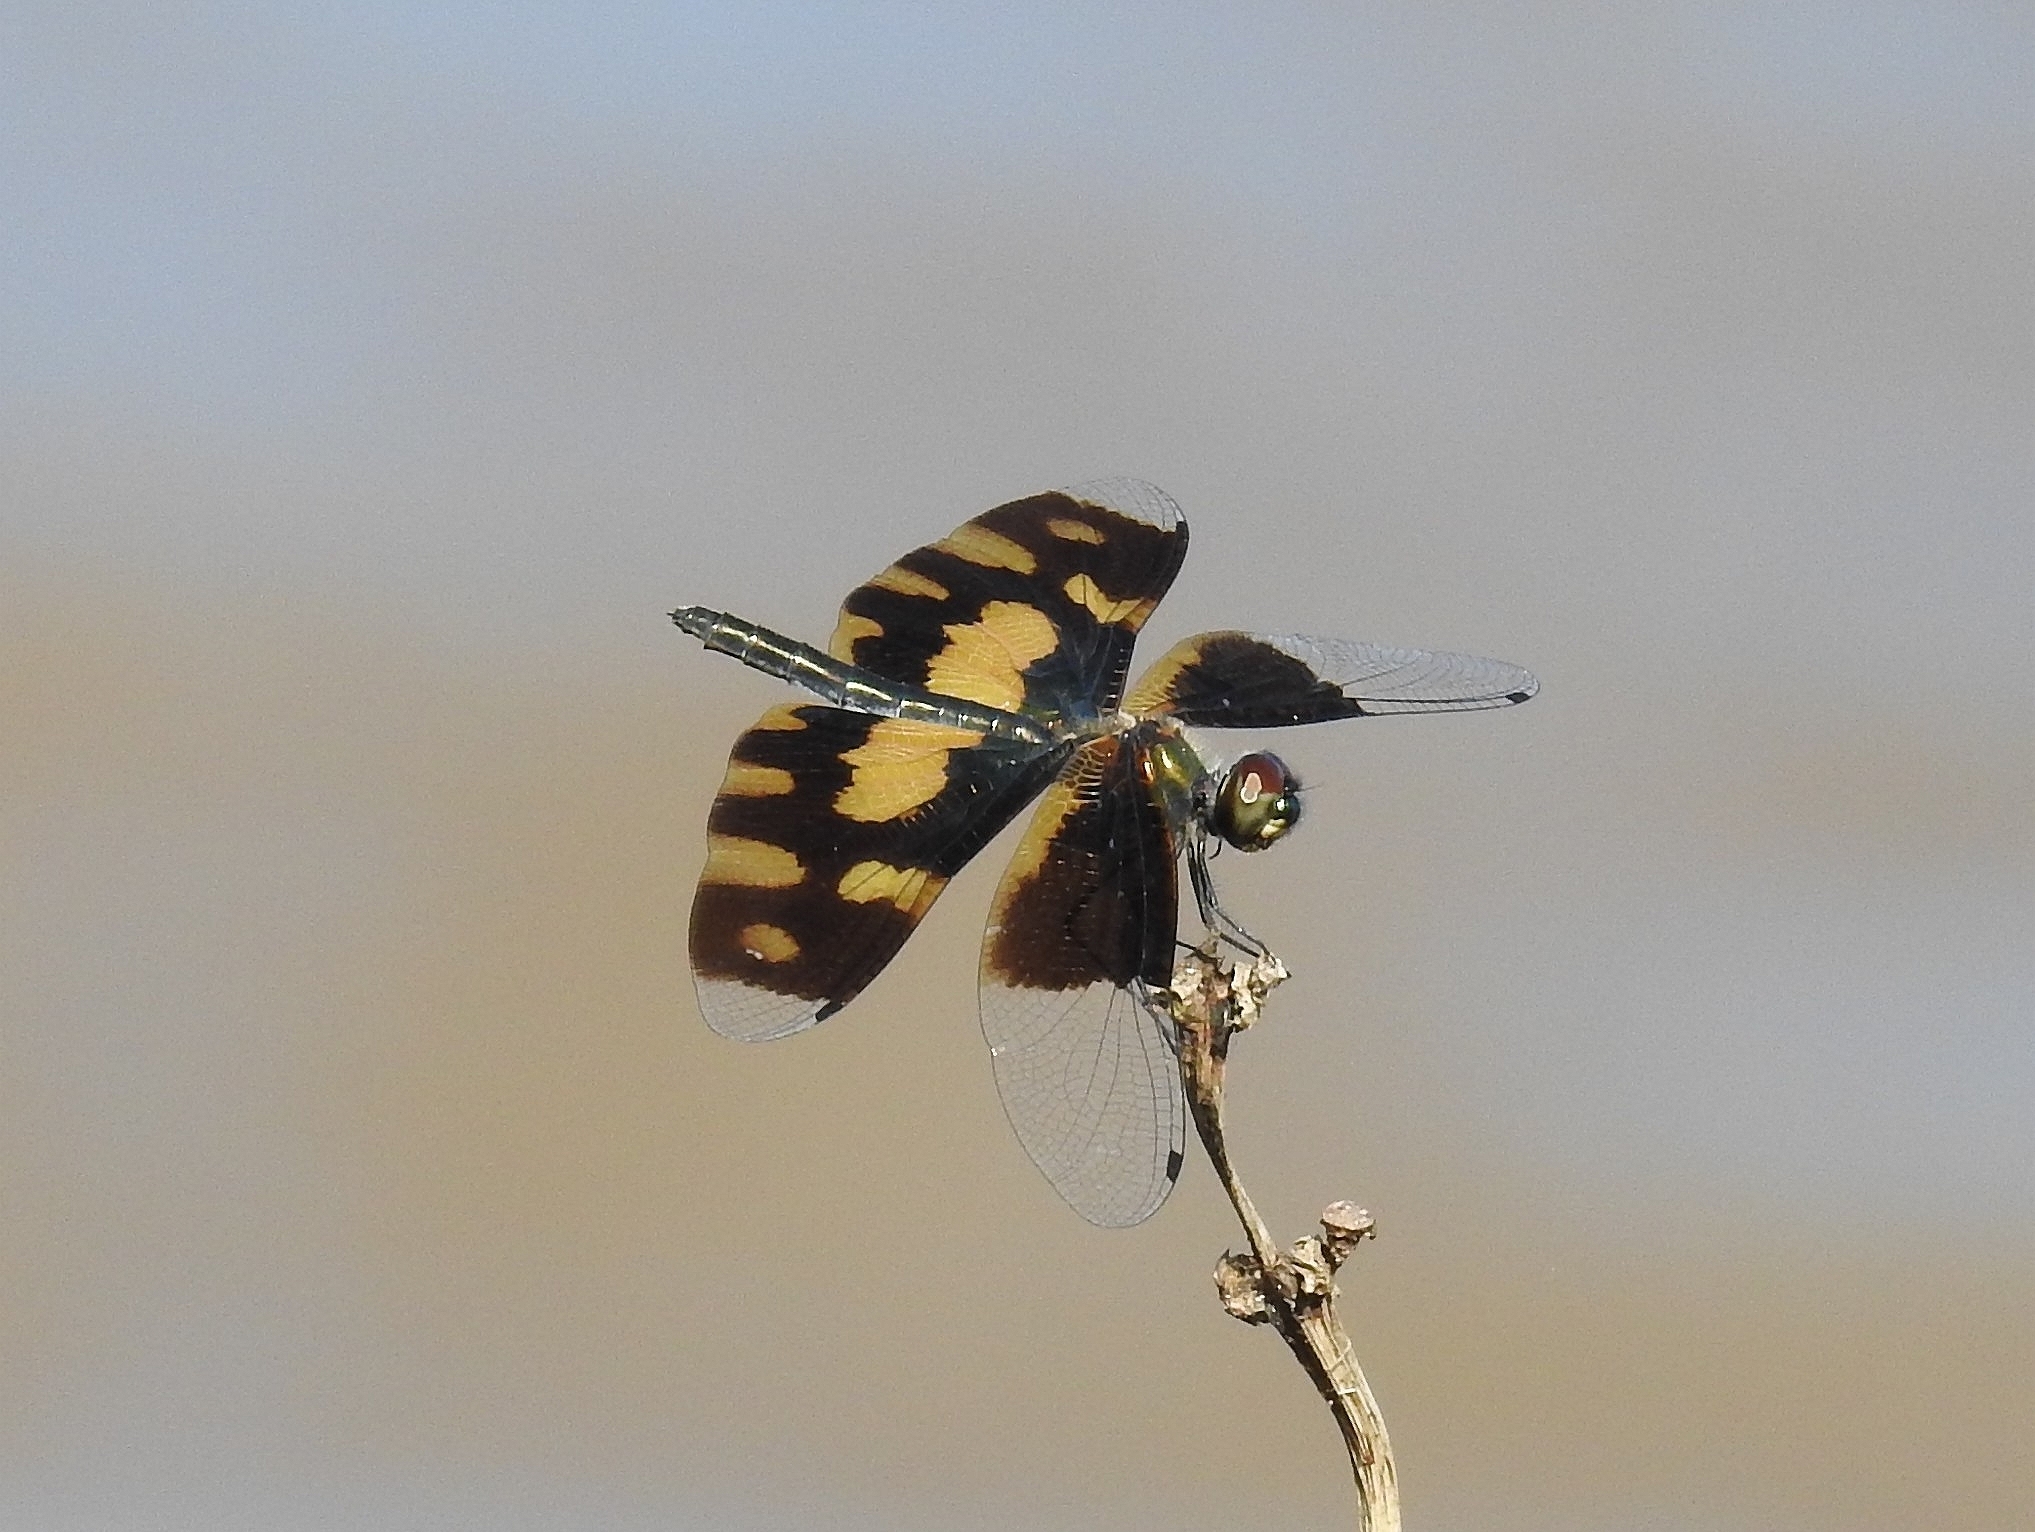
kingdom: Animalia
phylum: Arthropoda
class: Insecta
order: Odonata
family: Libellulidae
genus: Rhyothemis
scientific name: Rhyothemis variegata
